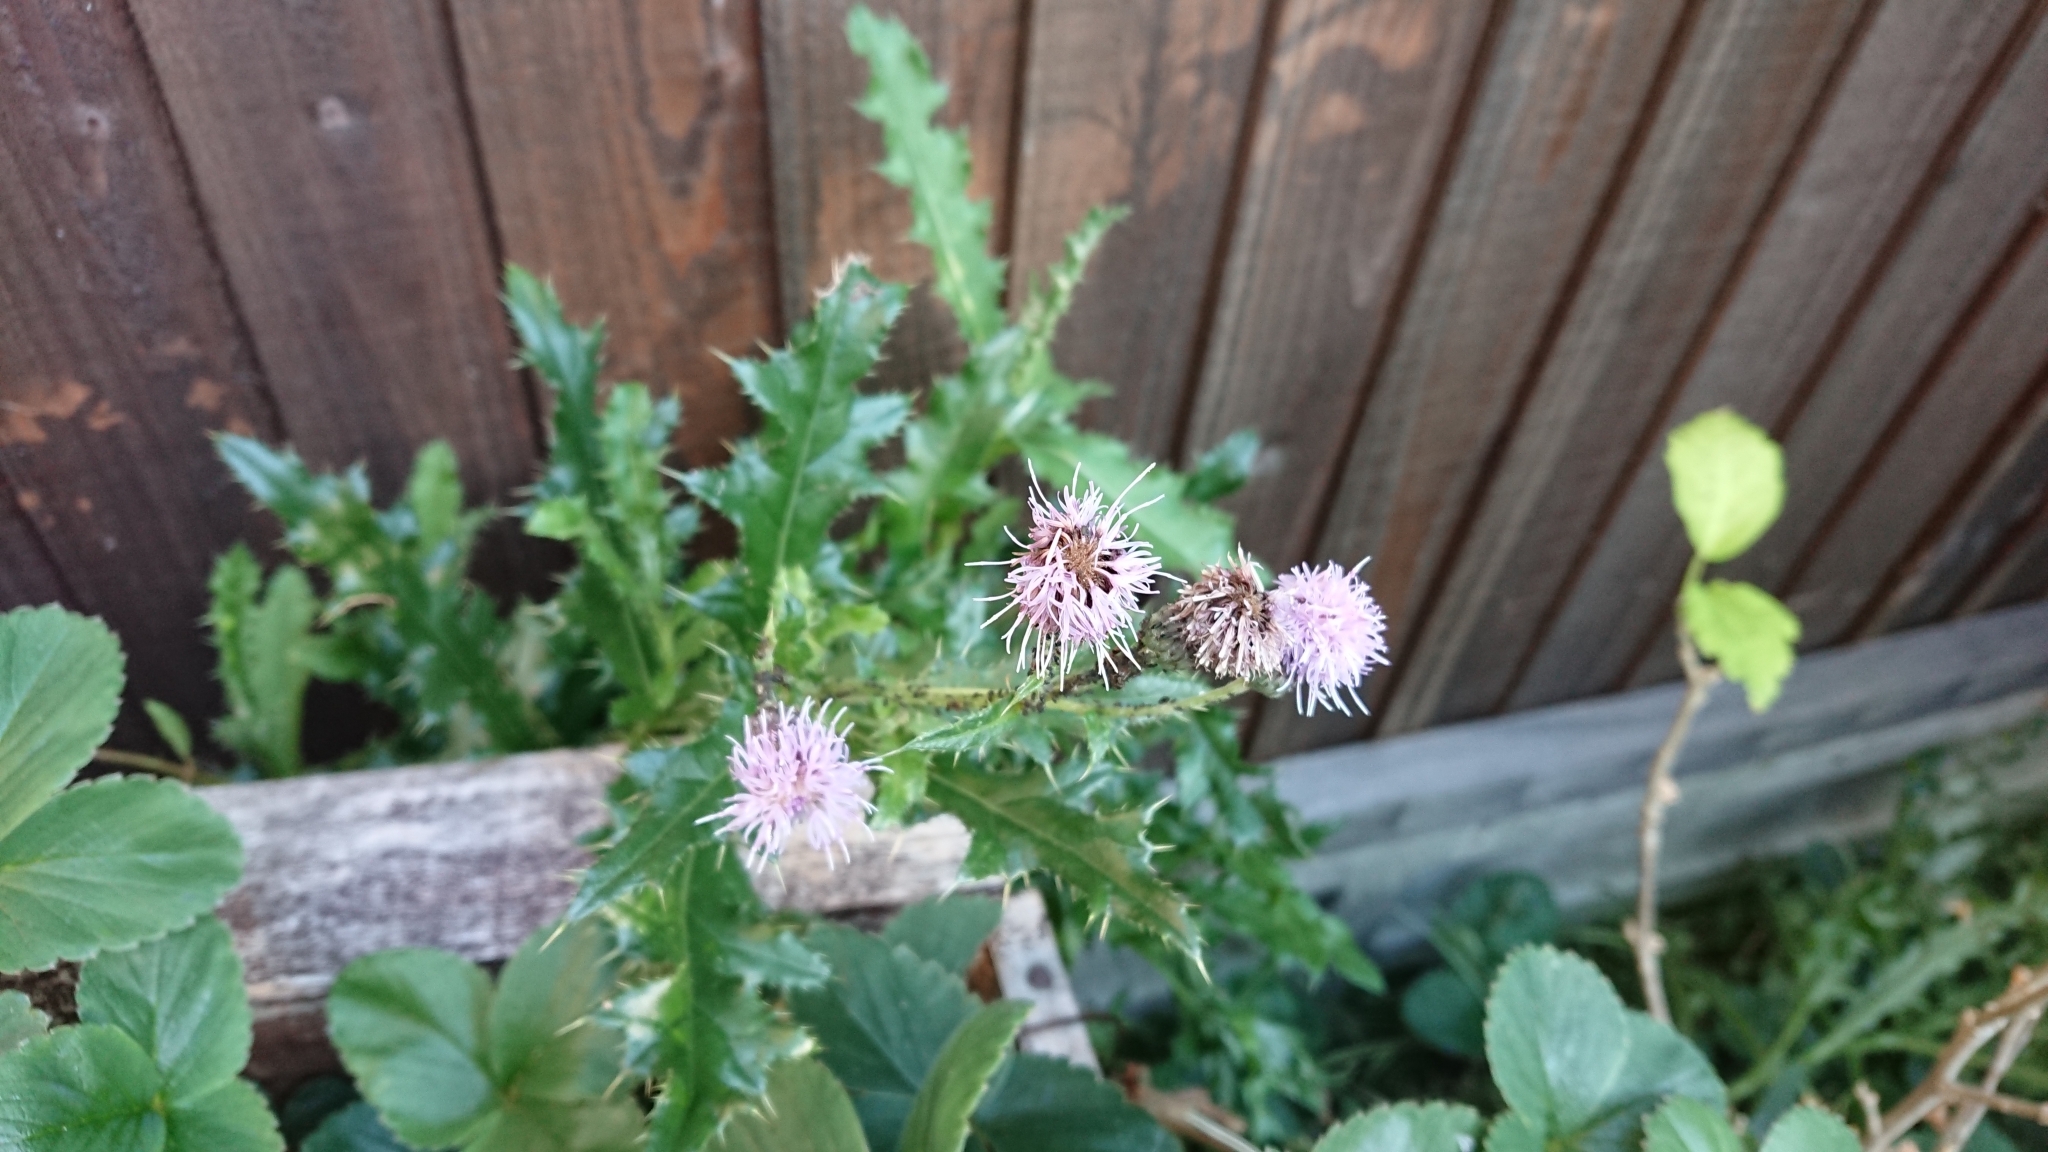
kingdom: Plantae
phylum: Tracheophyta
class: Magnoliopsida
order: Asterales
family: Asteraceae
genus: Cirsium
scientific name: Cirsium arvense
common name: Creeping thistle
